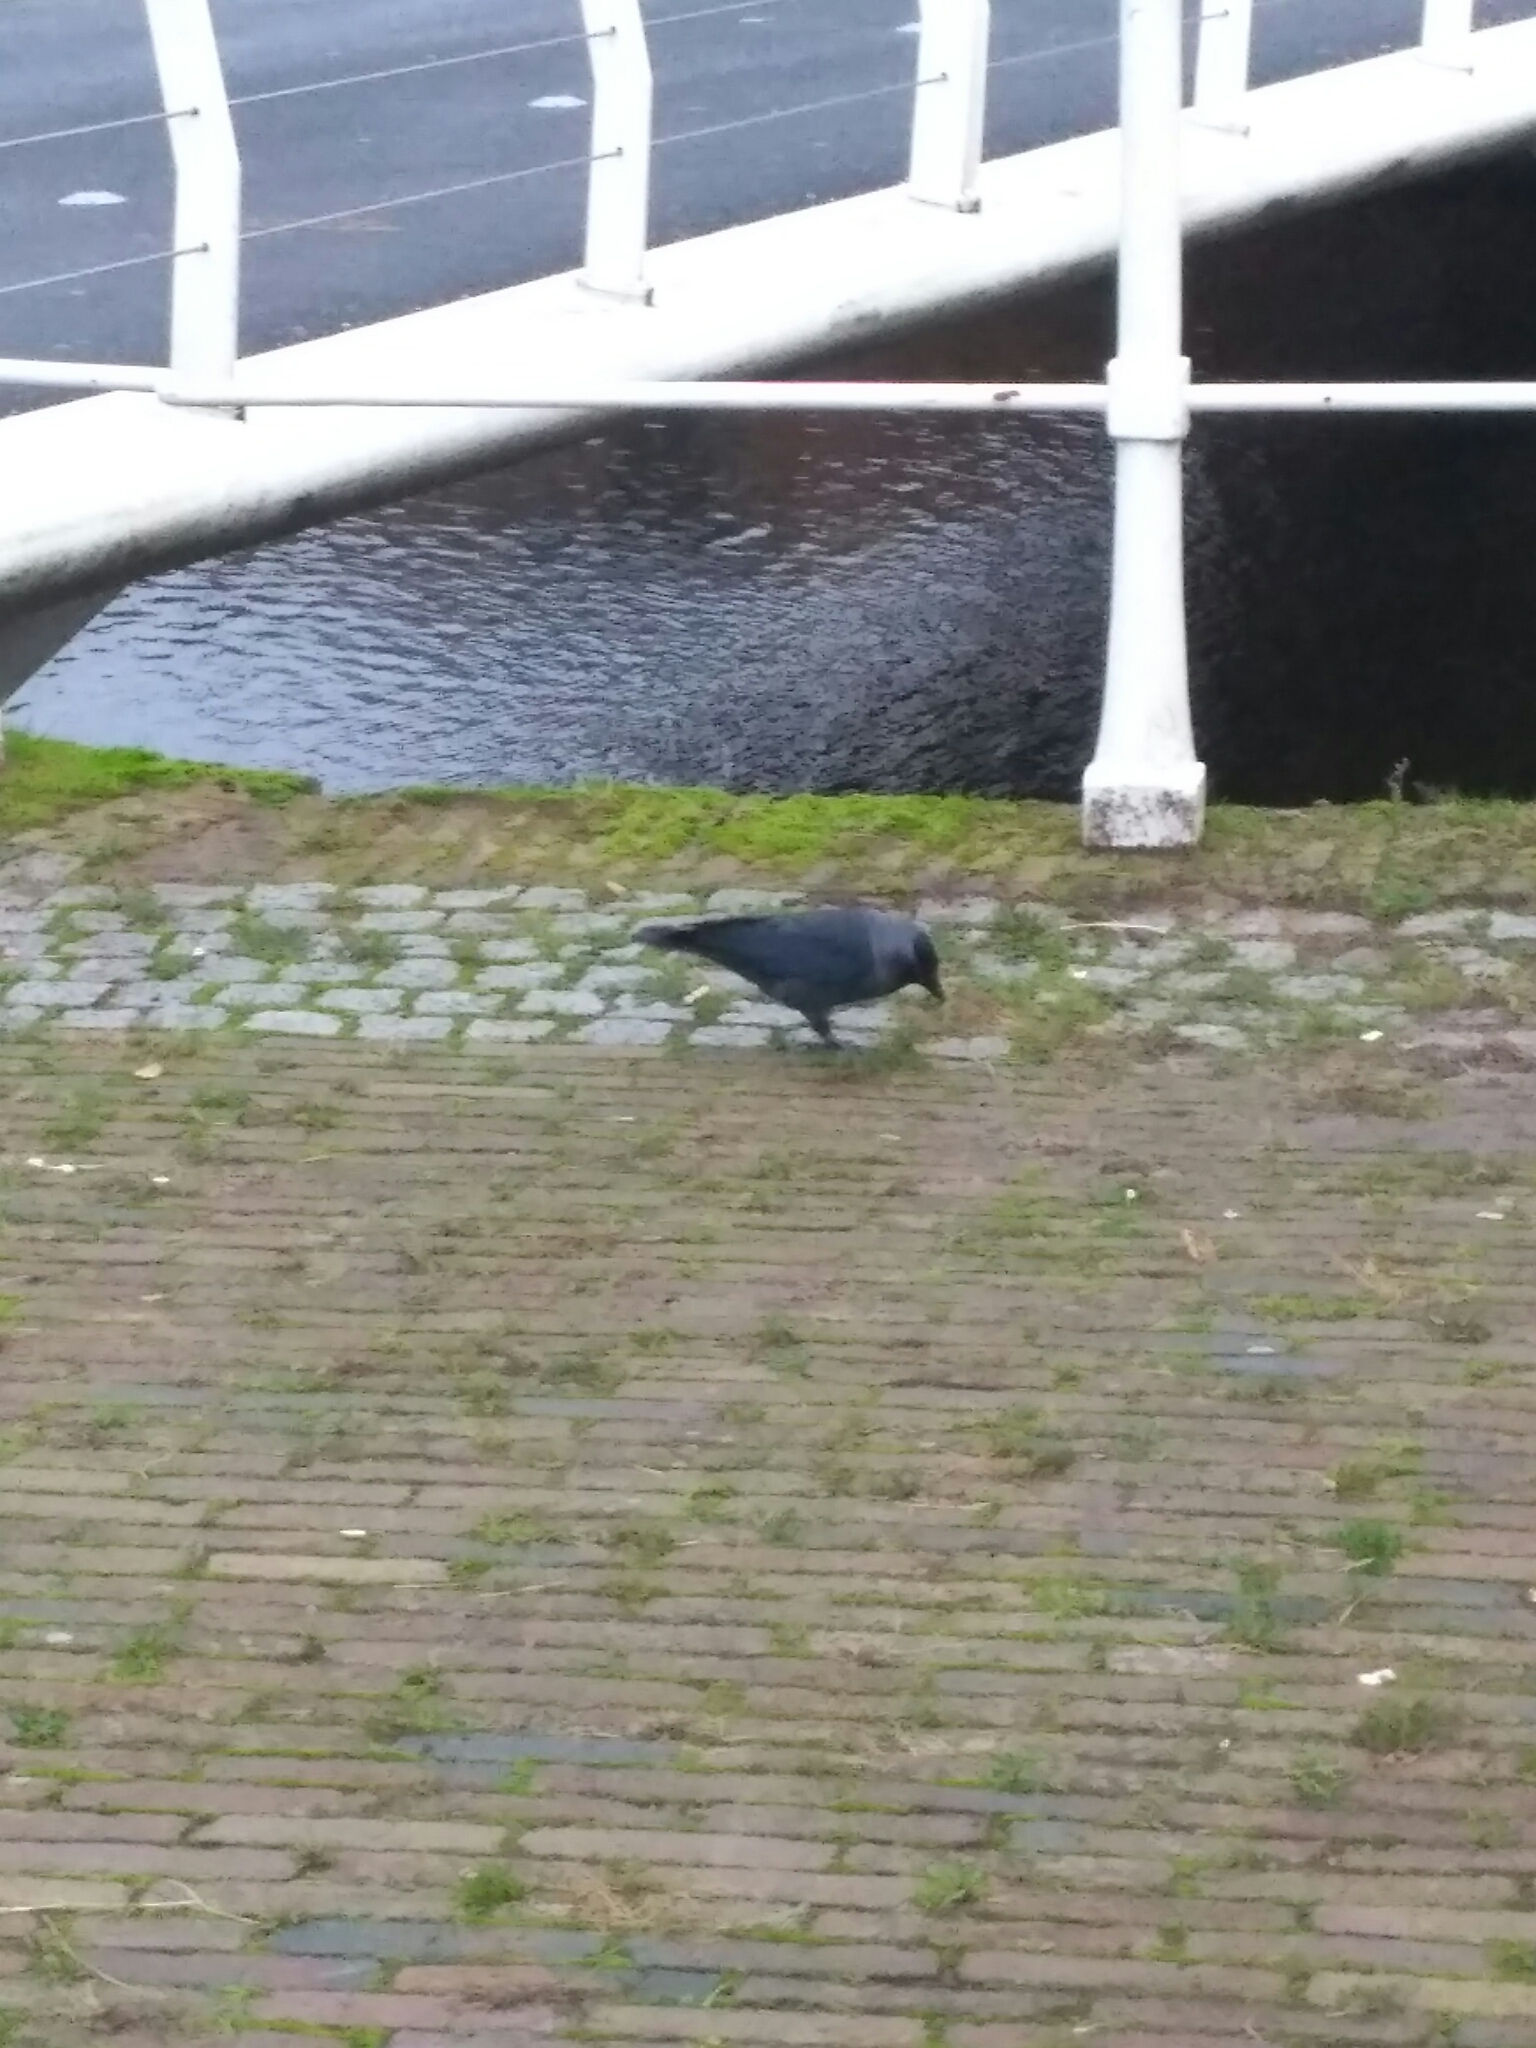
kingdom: Animalia
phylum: Chordata
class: Aves
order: Passeriformes
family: Corvidae
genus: Coloeus
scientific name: Coloeus monedula
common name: Western jackdaw
